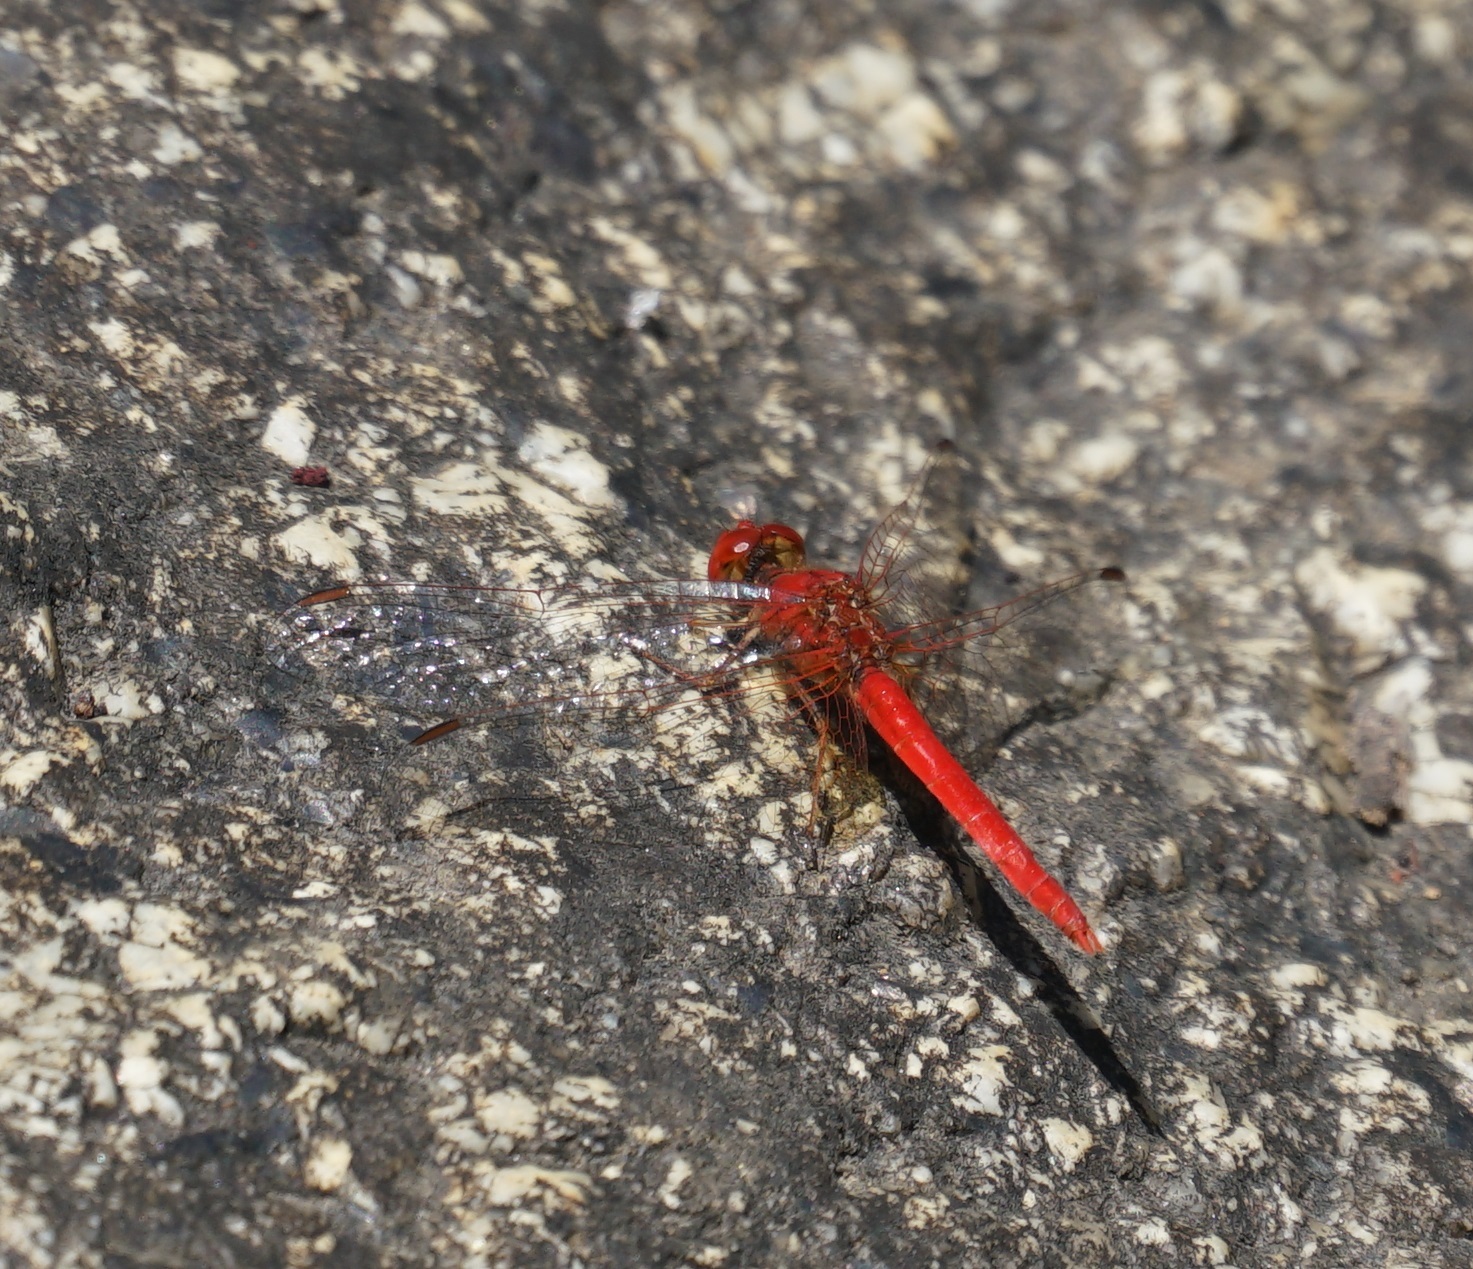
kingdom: Animalia
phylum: Arthropoda
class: Insecta
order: Odonata
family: Libellulidae
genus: Diplacodes
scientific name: Diplacodes haematodes
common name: Scarlet percher
